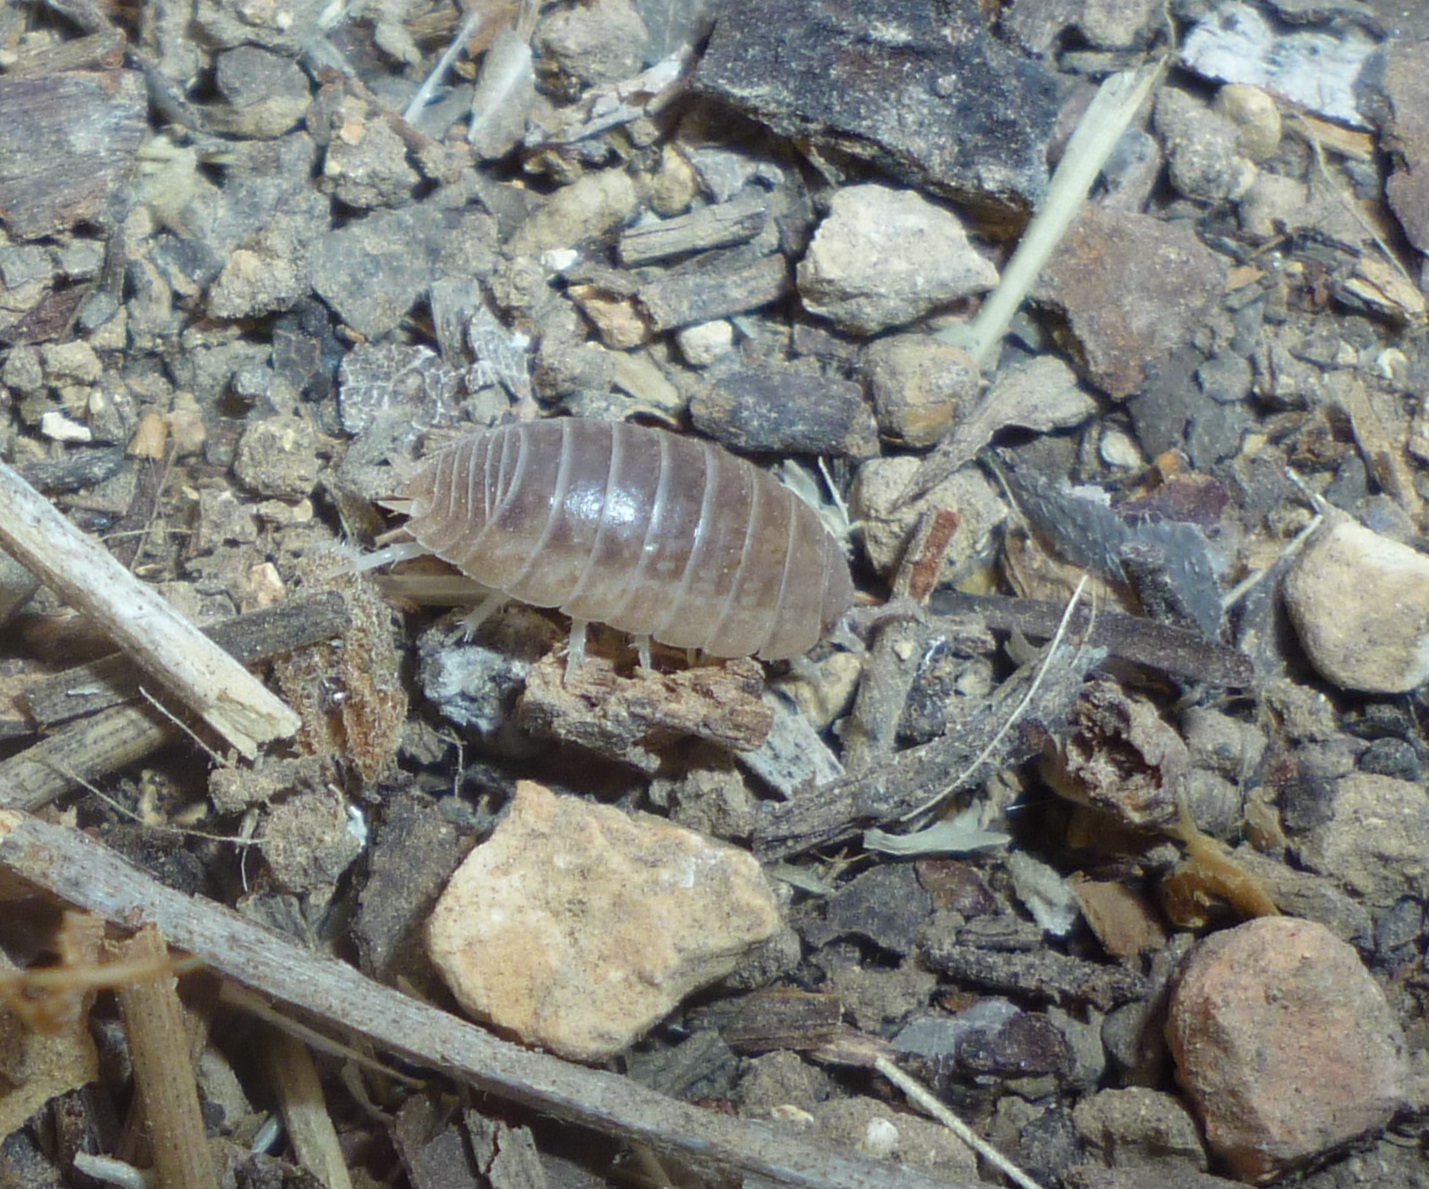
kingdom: Animalia
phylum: Arthropoda
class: Malacostraca
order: Isopoda
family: Porcellionidae
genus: Leptotrichus
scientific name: Leptotrichus panzerii
